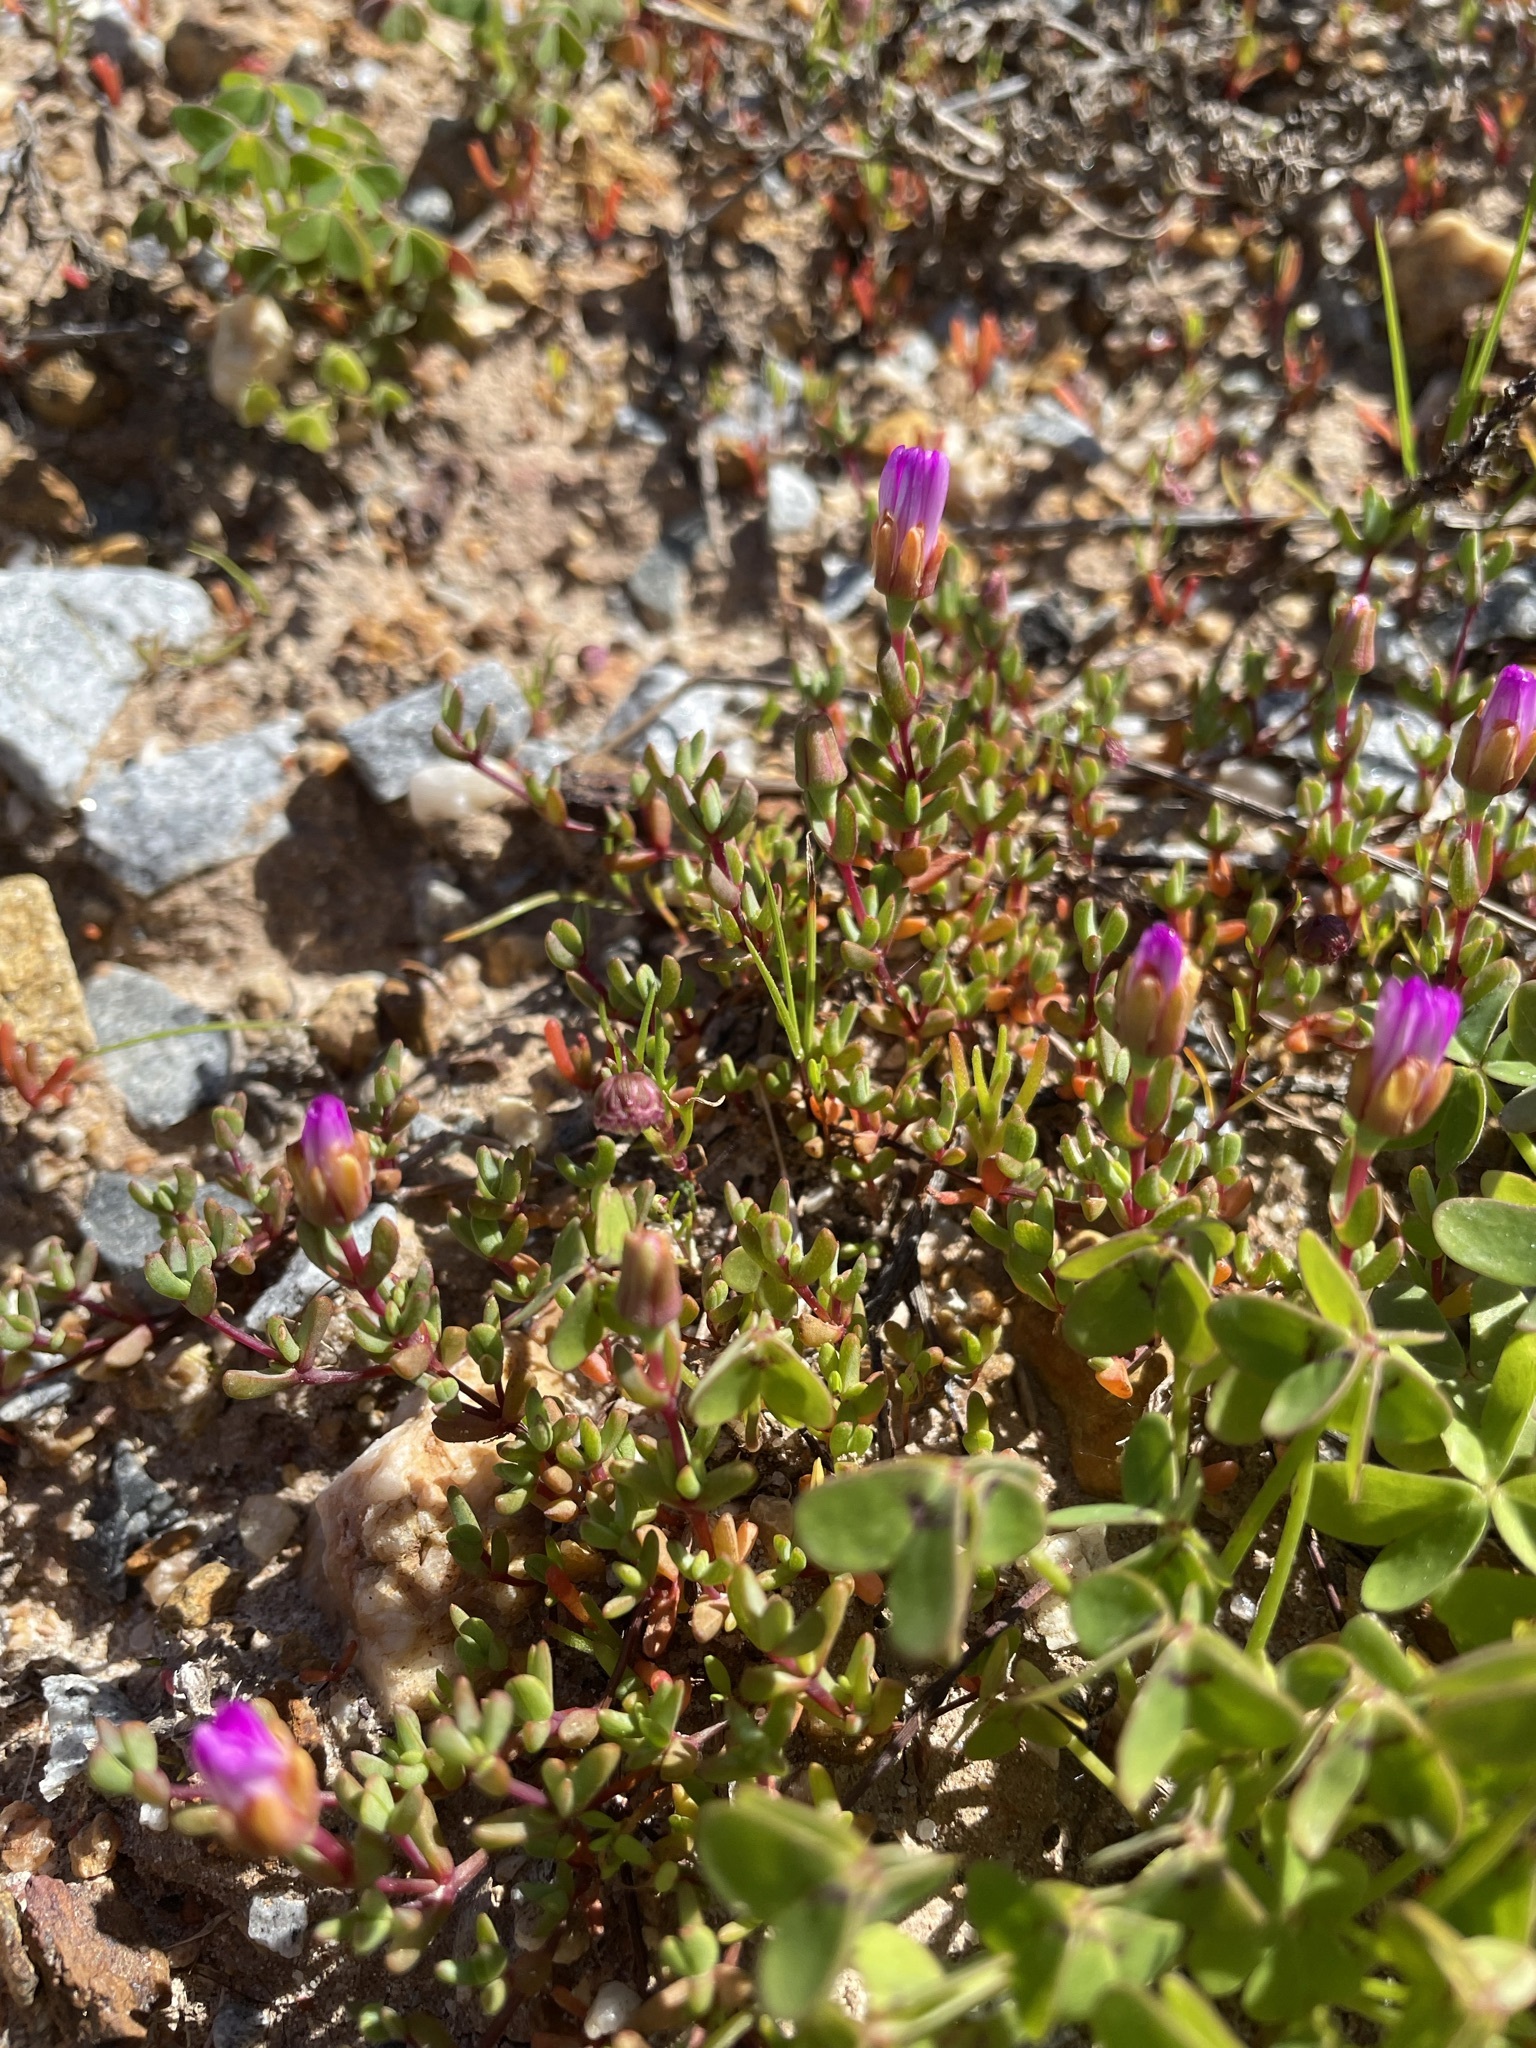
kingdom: Plantae
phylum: Tracheophyta
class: Magnoliopsida
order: Caryophyllales
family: Aizoaceae
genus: Lampranthus
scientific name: Lampranthus leptaleon
